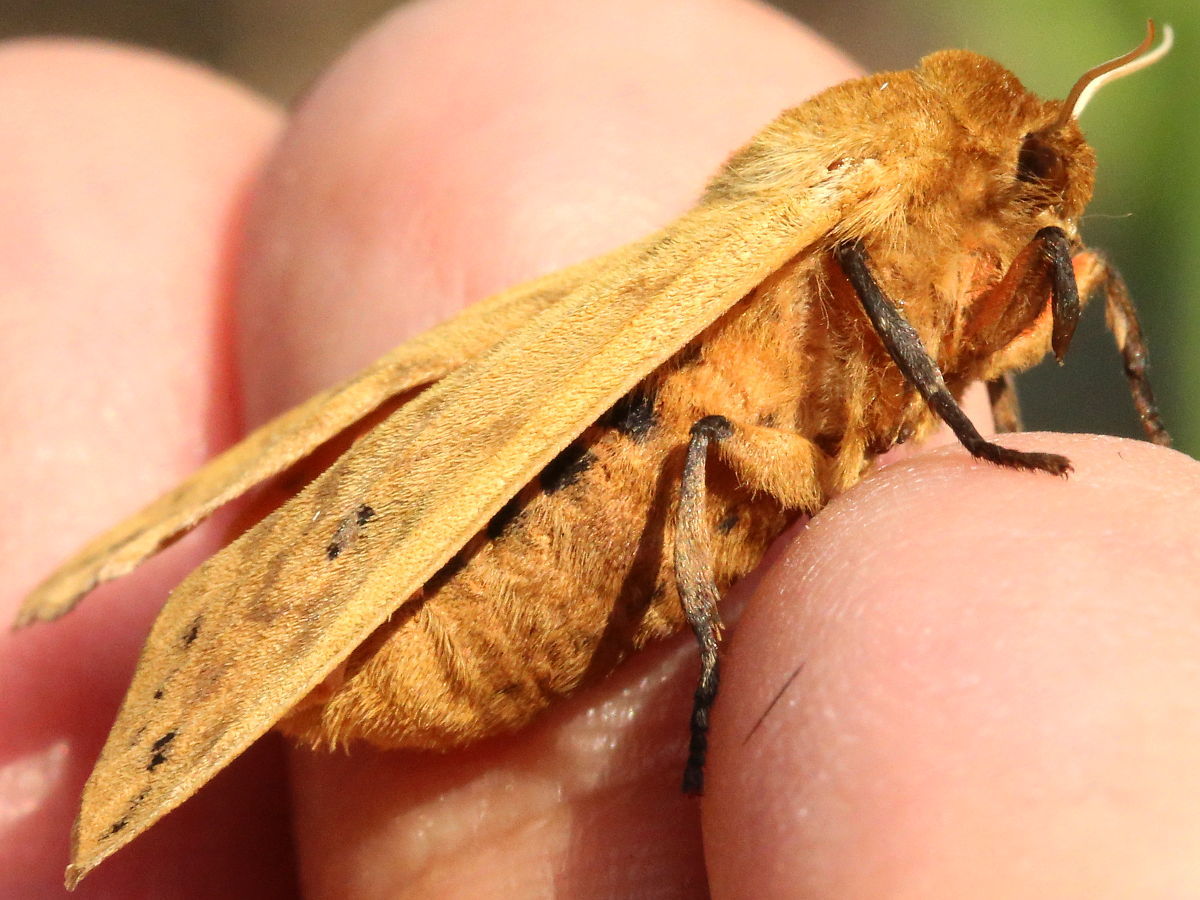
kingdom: Animalia
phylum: Arthropoda
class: Insecta
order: Lepidoptera
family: Erebidae
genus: Pyrrharctia
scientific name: Pyrrharctia isabella
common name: Isabella tiger moth
